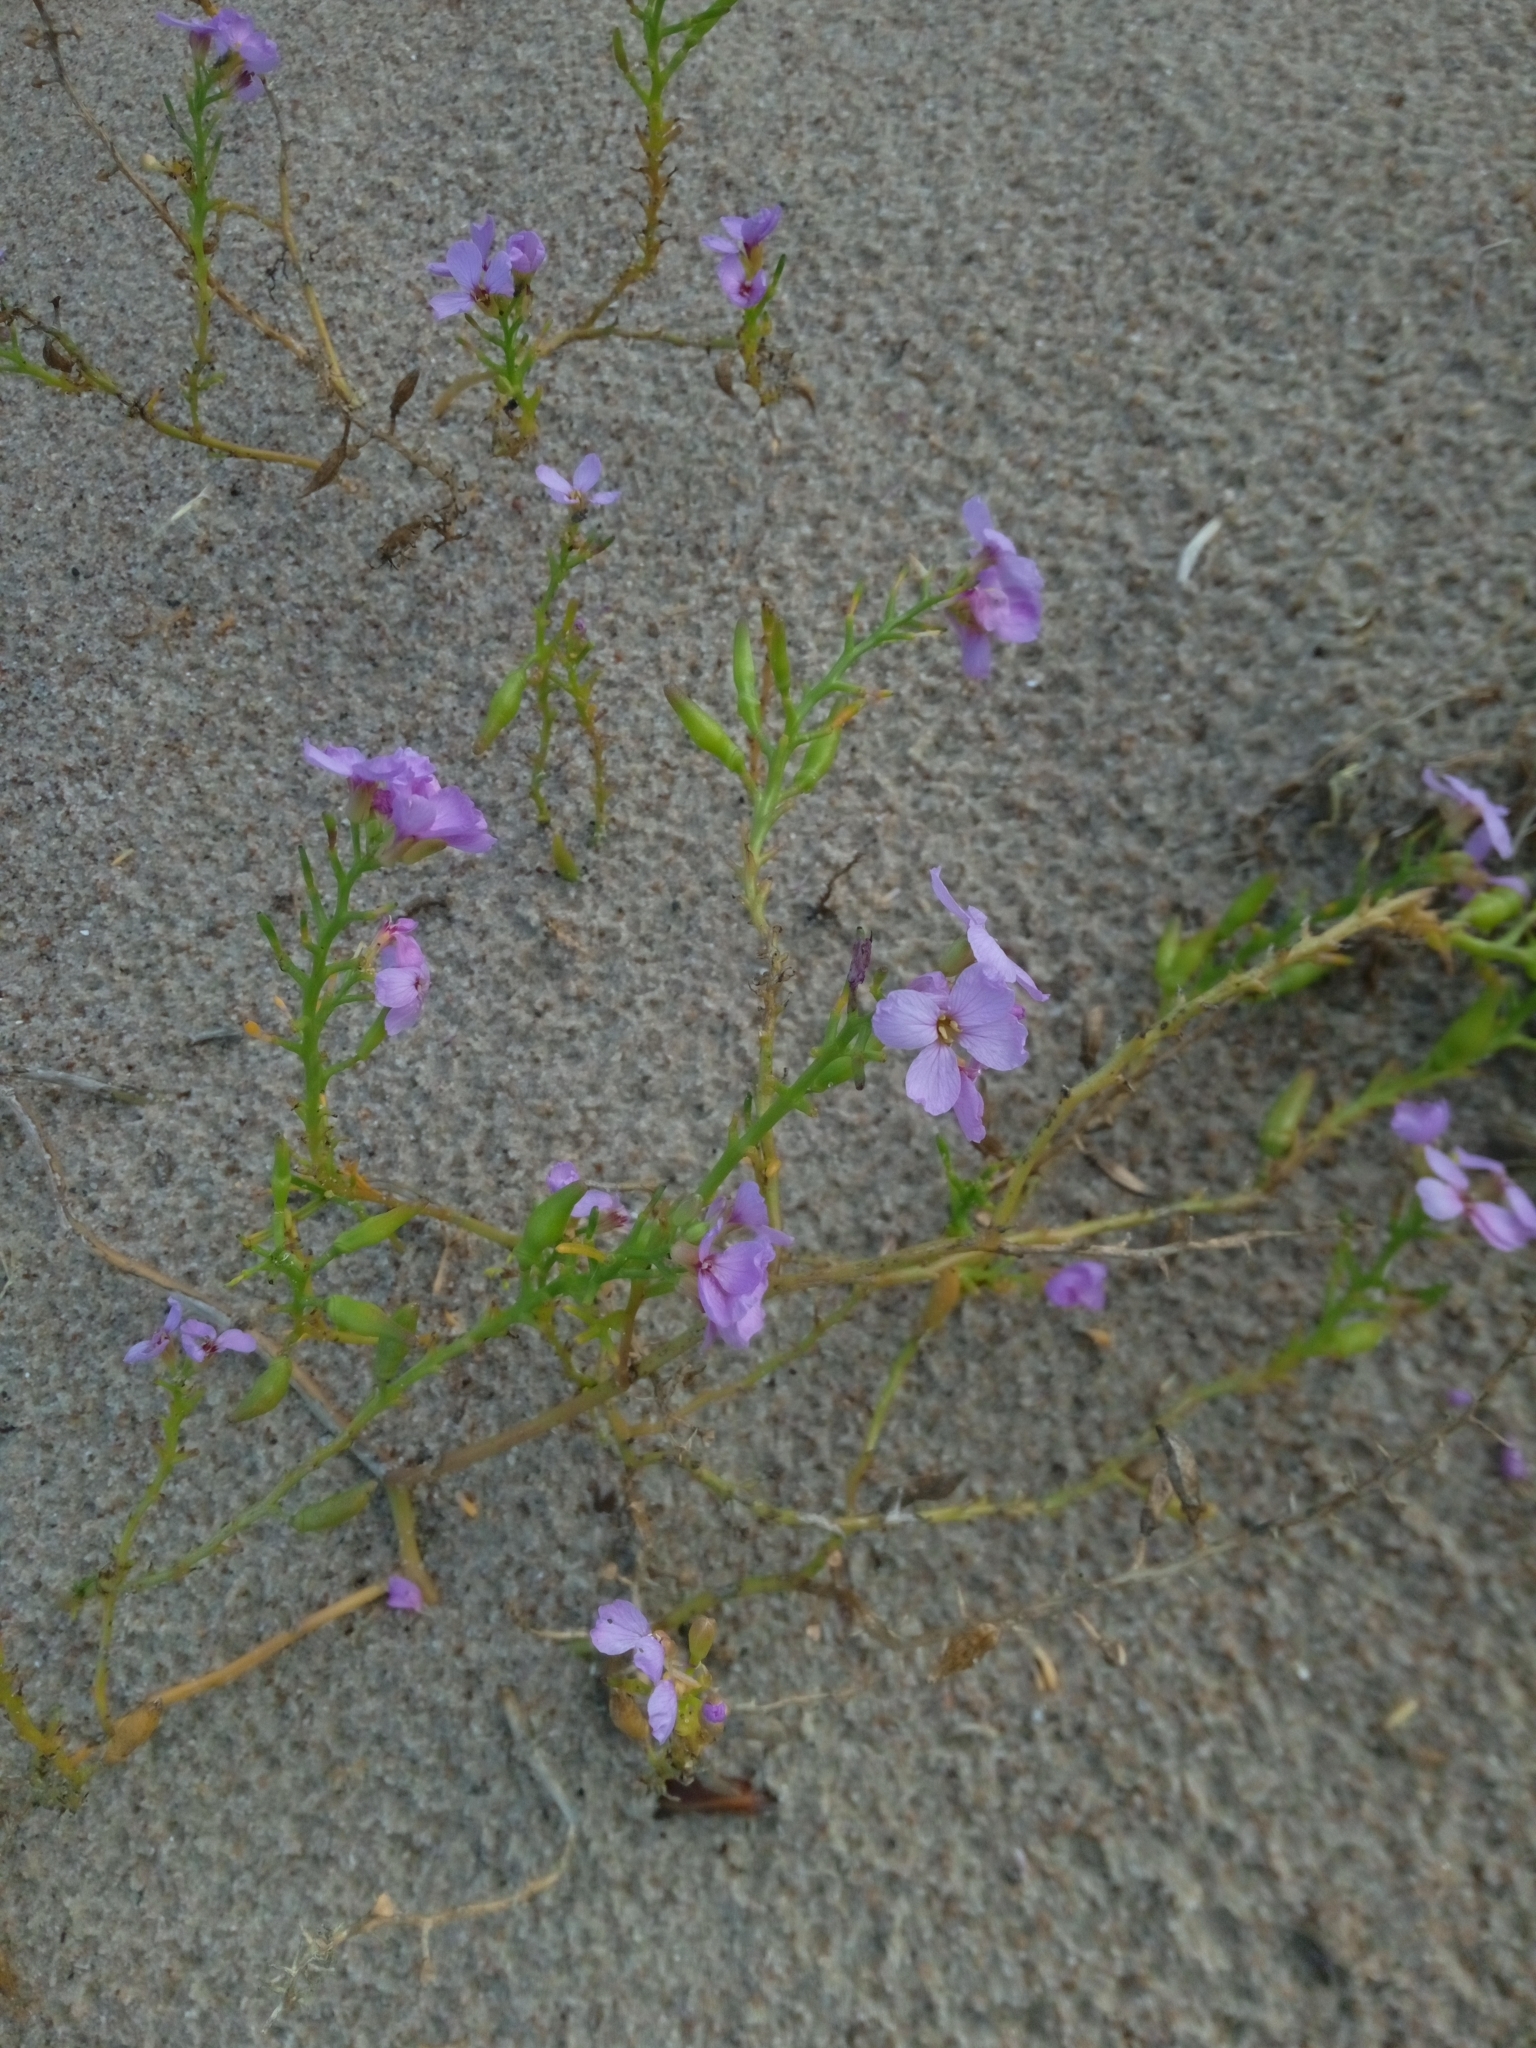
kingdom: Plantae
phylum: Tracheophyta
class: Magnoliopsida
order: Brassicales
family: Brassicaceae
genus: Cakile
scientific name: Cakile maritima
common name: Sea rocket
